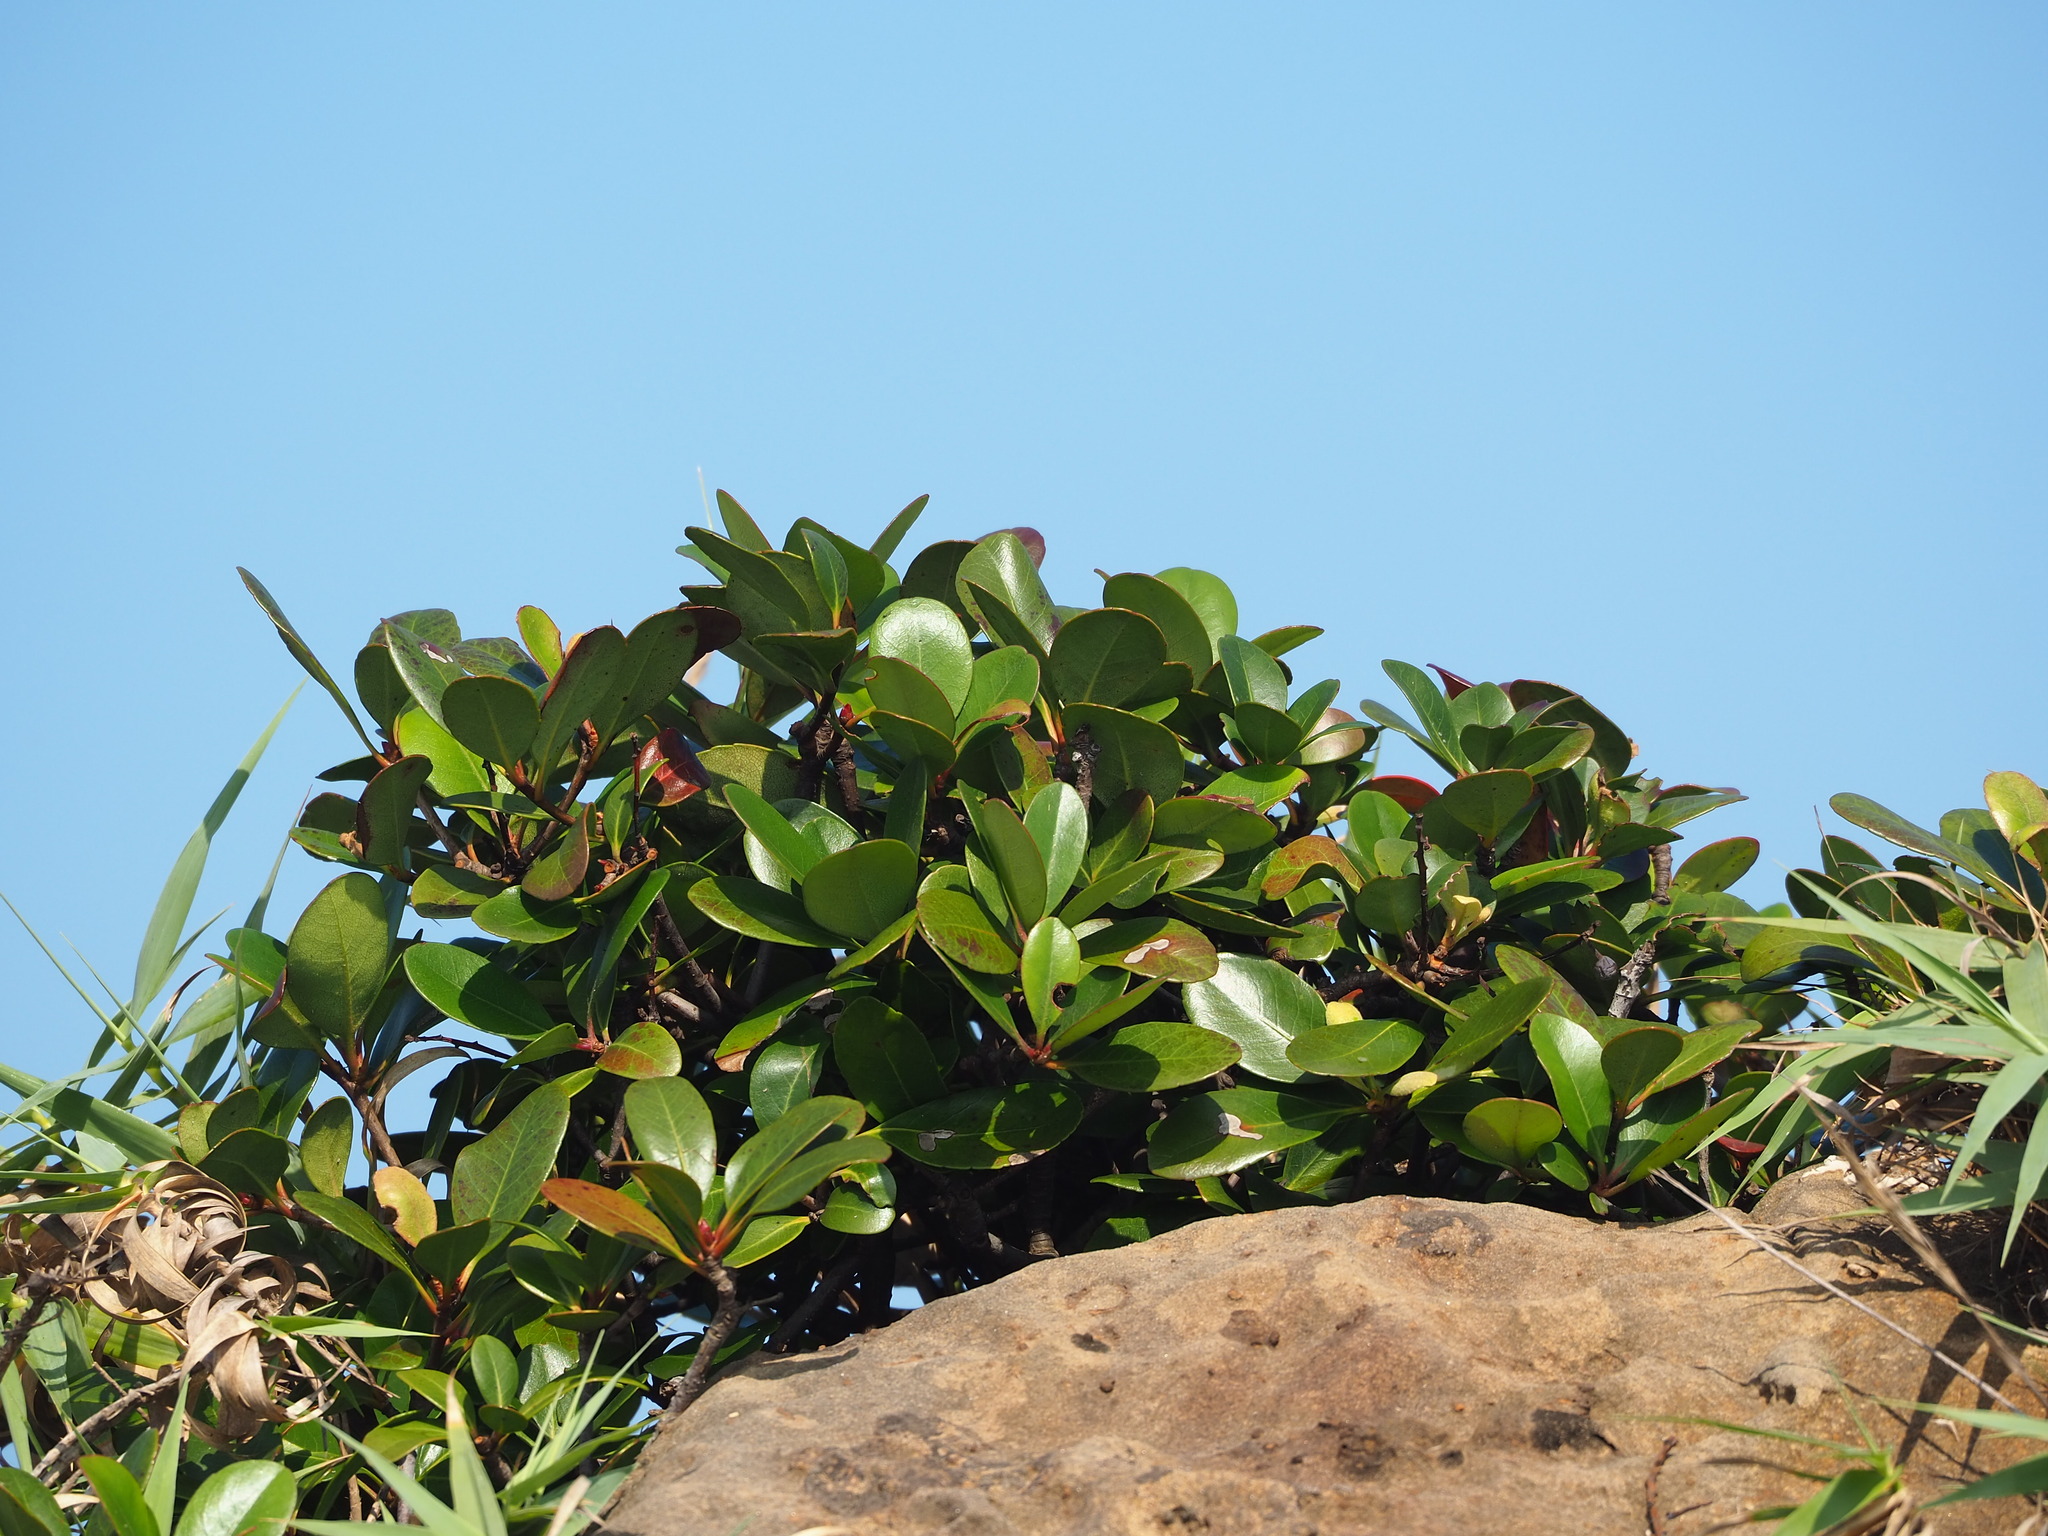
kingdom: Plantae
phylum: Tracheophyta
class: Magnoliopsida
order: Rosales
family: Rosaceae
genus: Rhaphiolepis
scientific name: Rhaphiolepis umbellata
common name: Yedda-hawthorn
